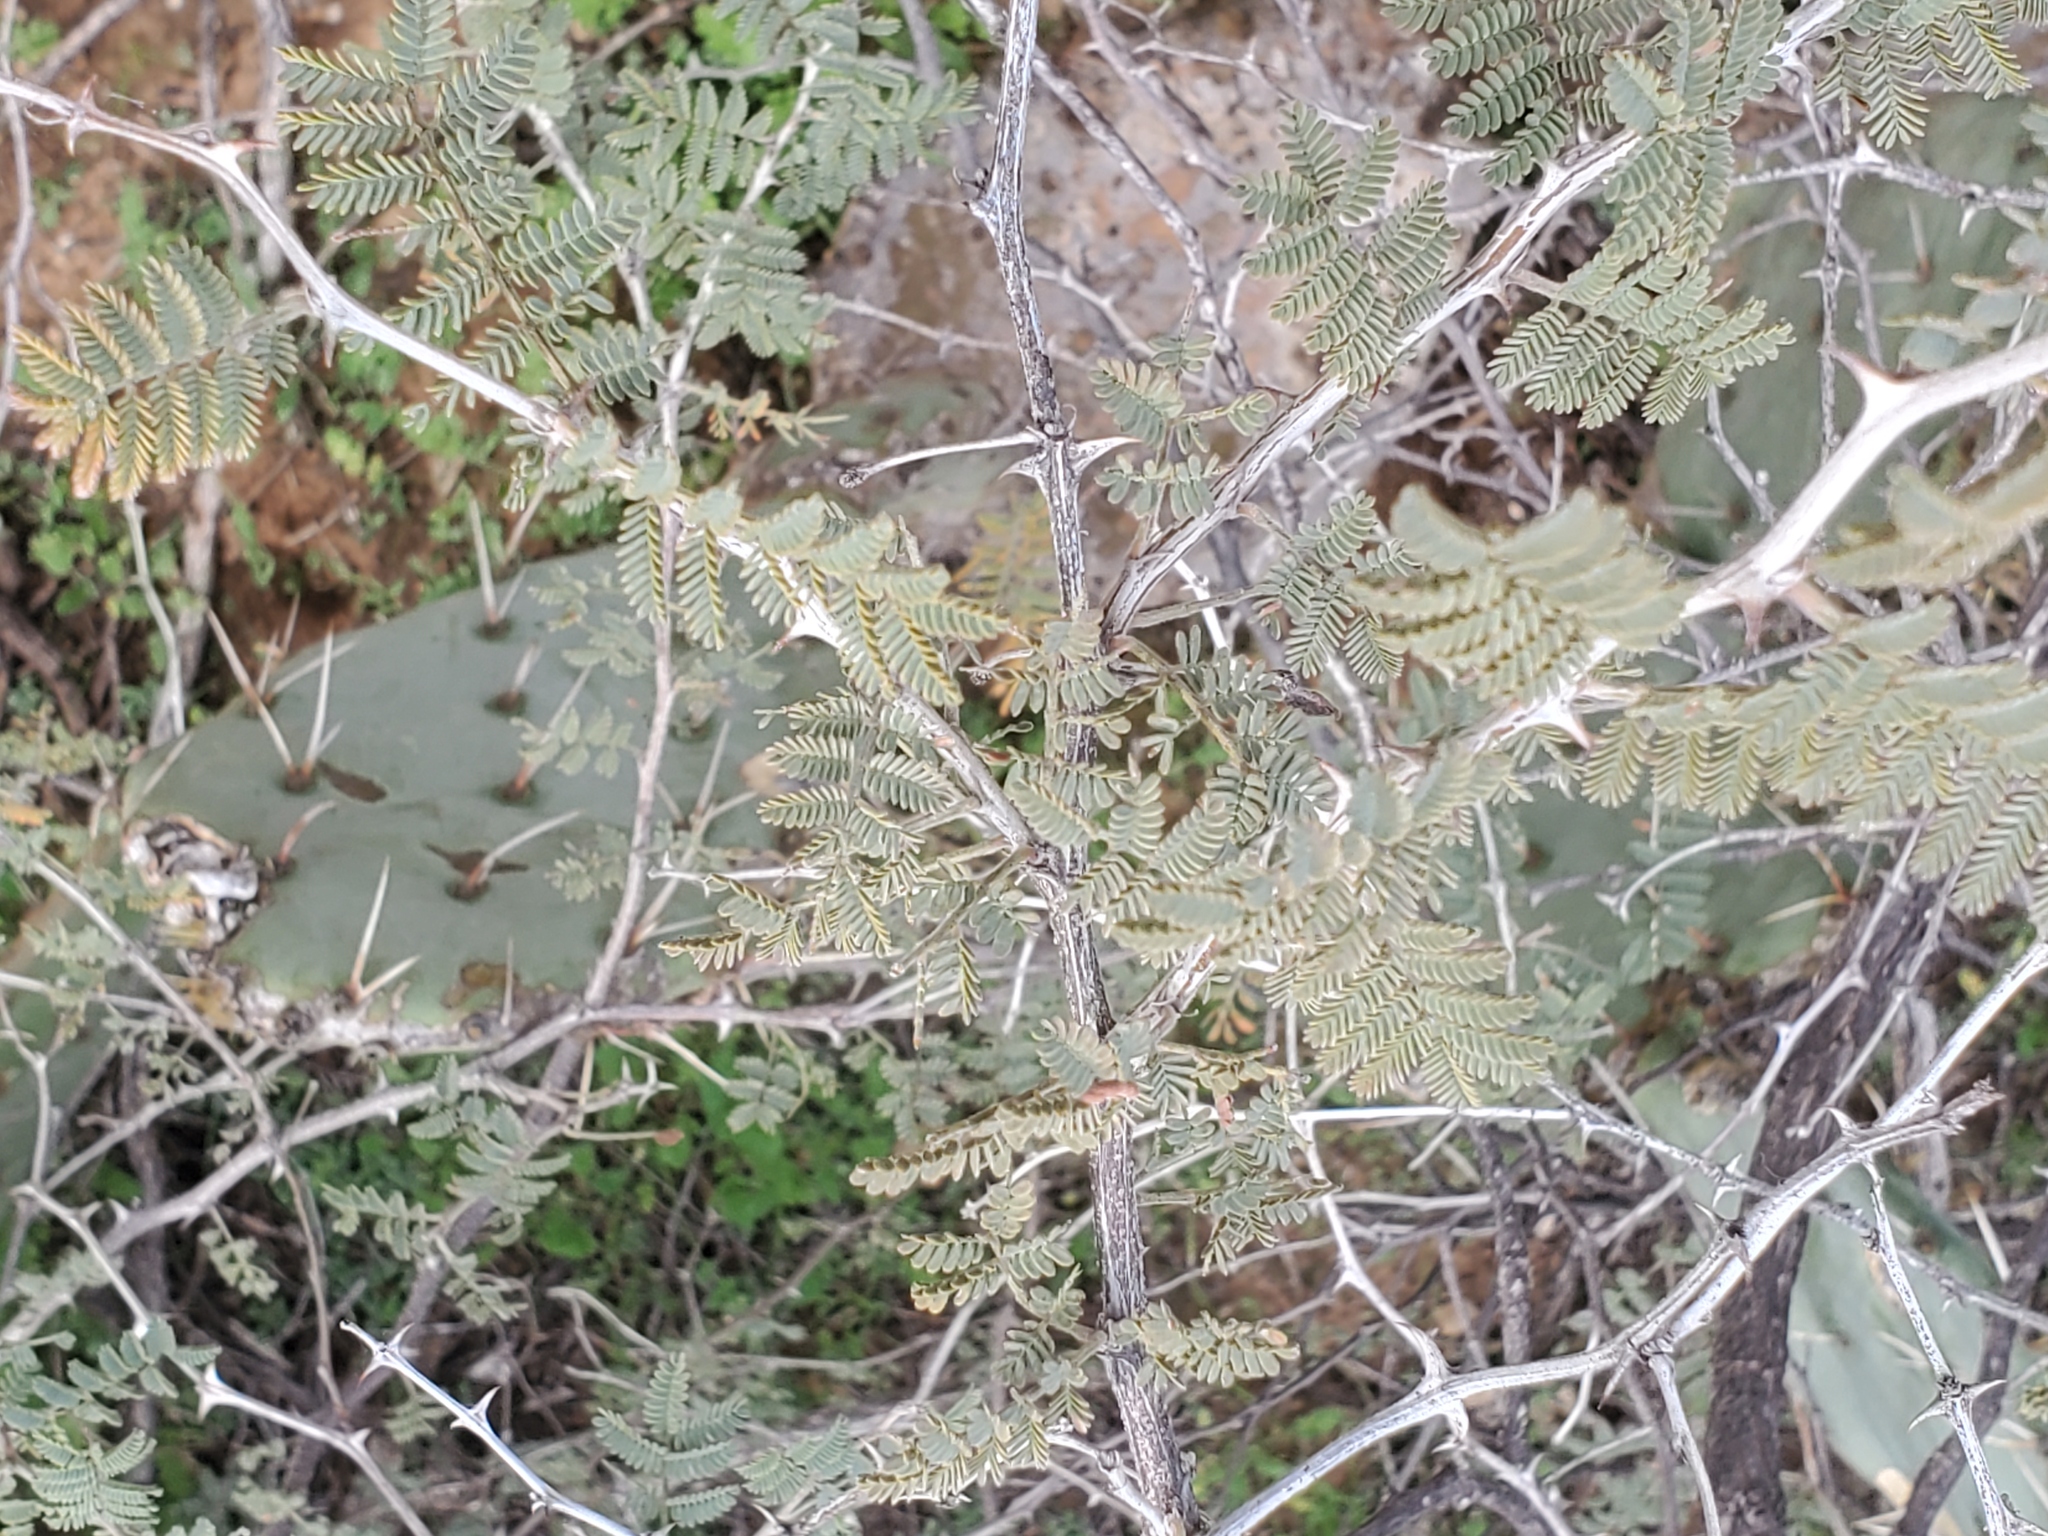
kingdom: Plantae
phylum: Tracheophyta
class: Magnoliopsida
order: Fabales
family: Fabaceae
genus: Mimosa
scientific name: Mimosa aculeaticarpa
